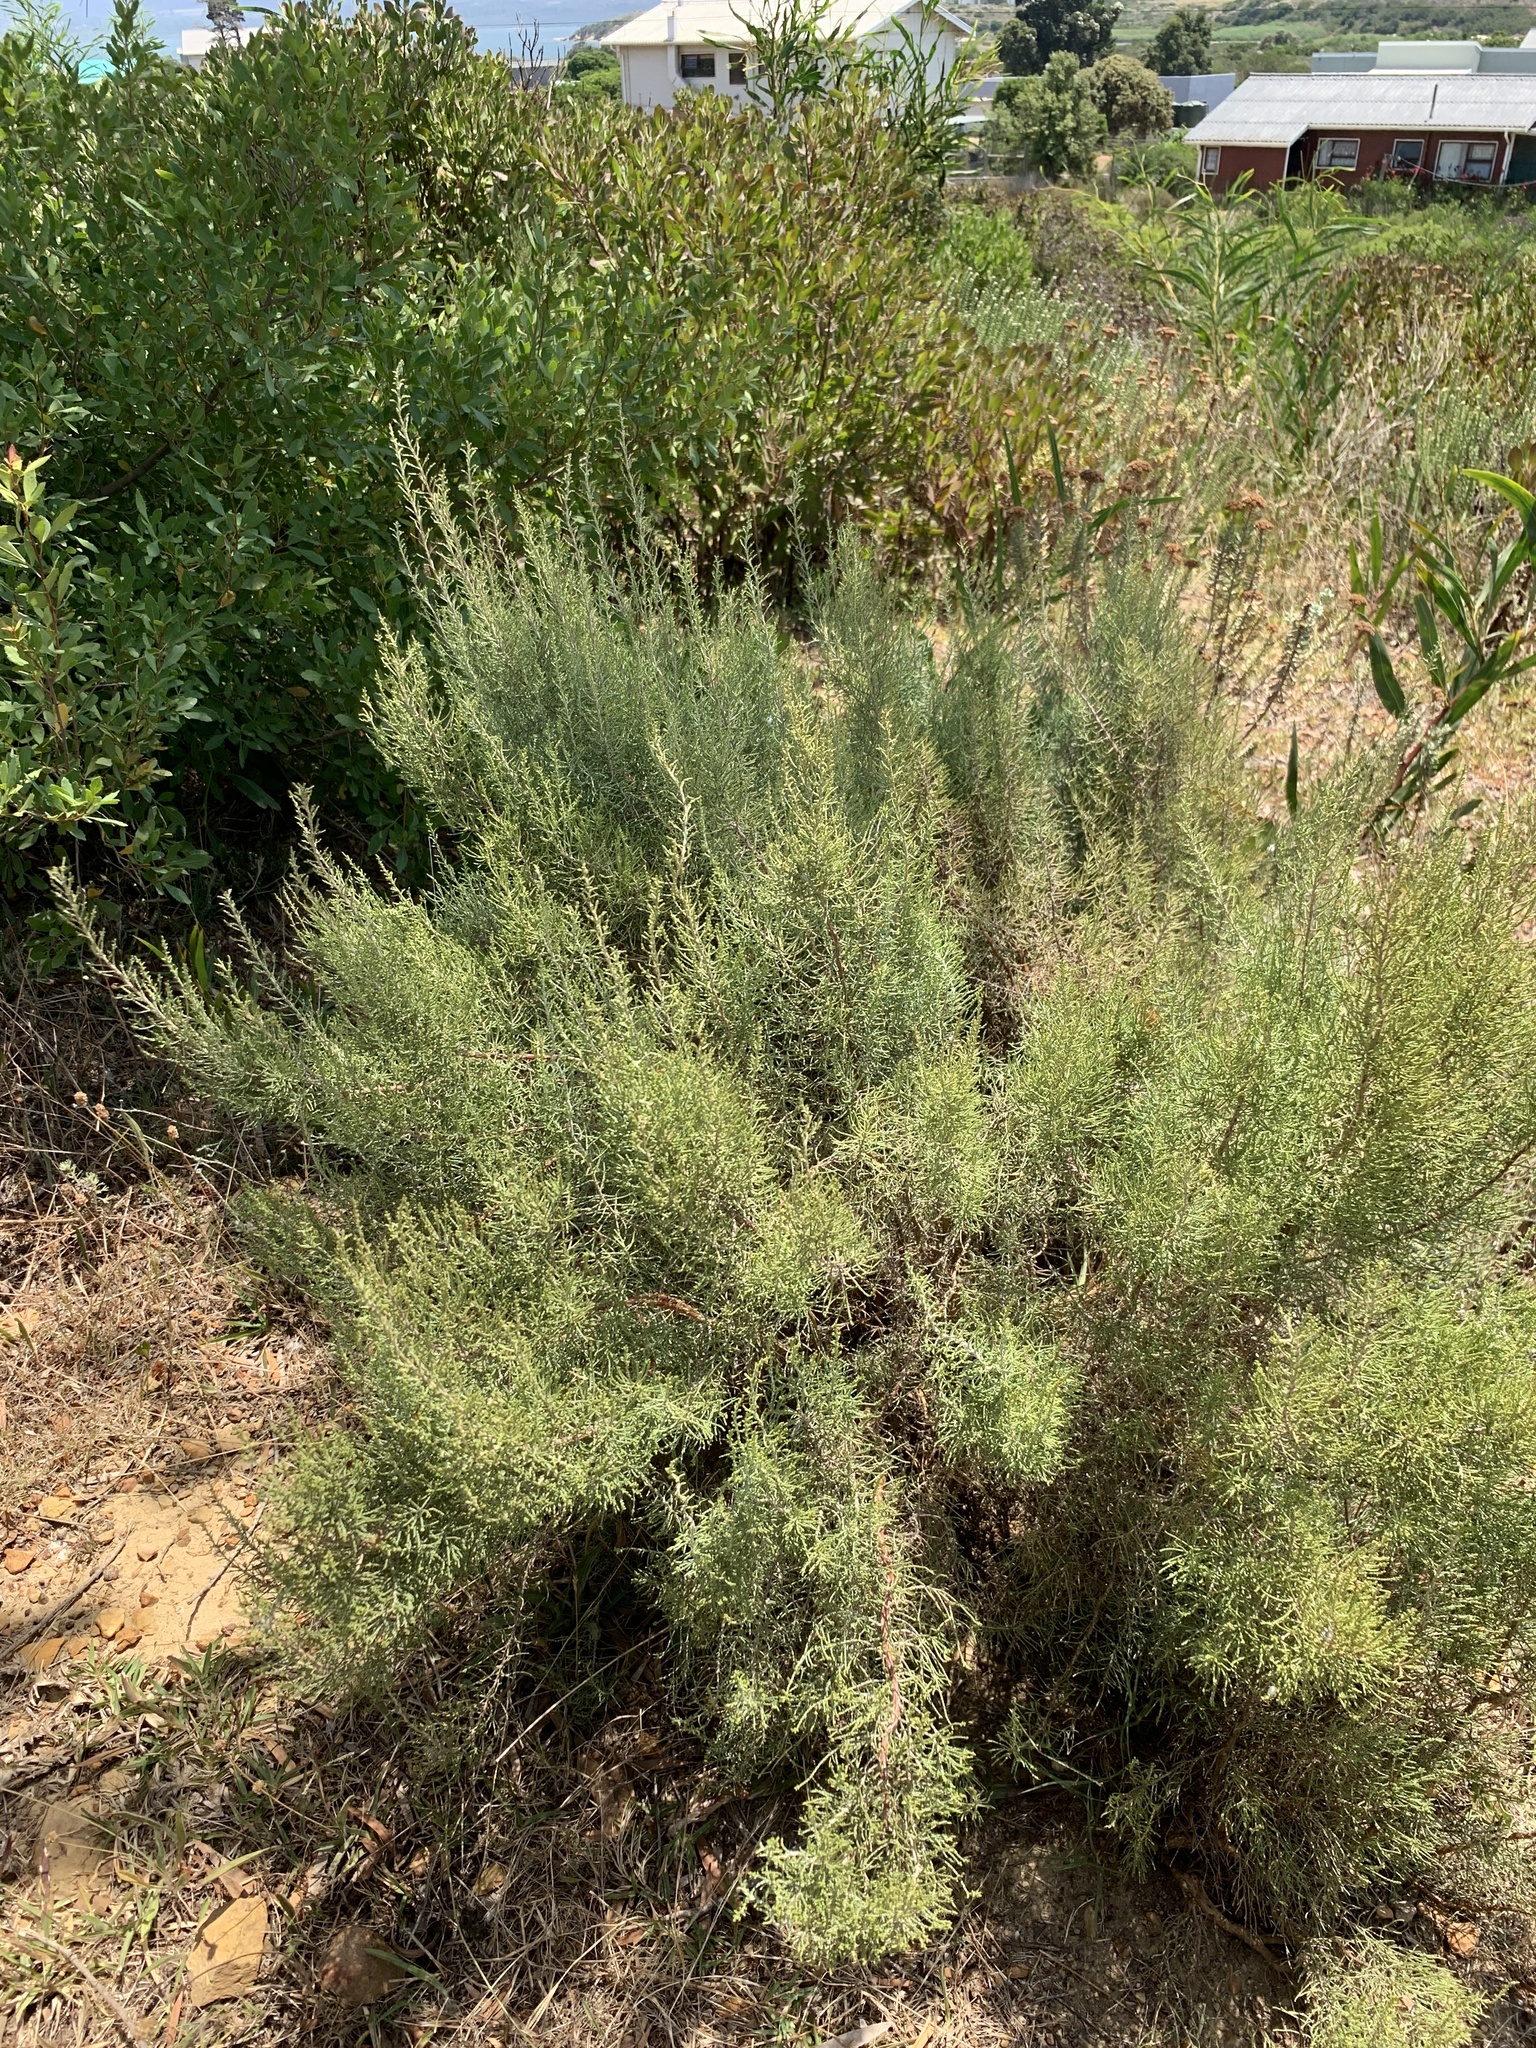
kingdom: Plantae
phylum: Tracheophyta
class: Magnoliopsida
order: Asterales
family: Asteraceae
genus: Dicerothamnus
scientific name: Dicerothamnus rhinocerotis
